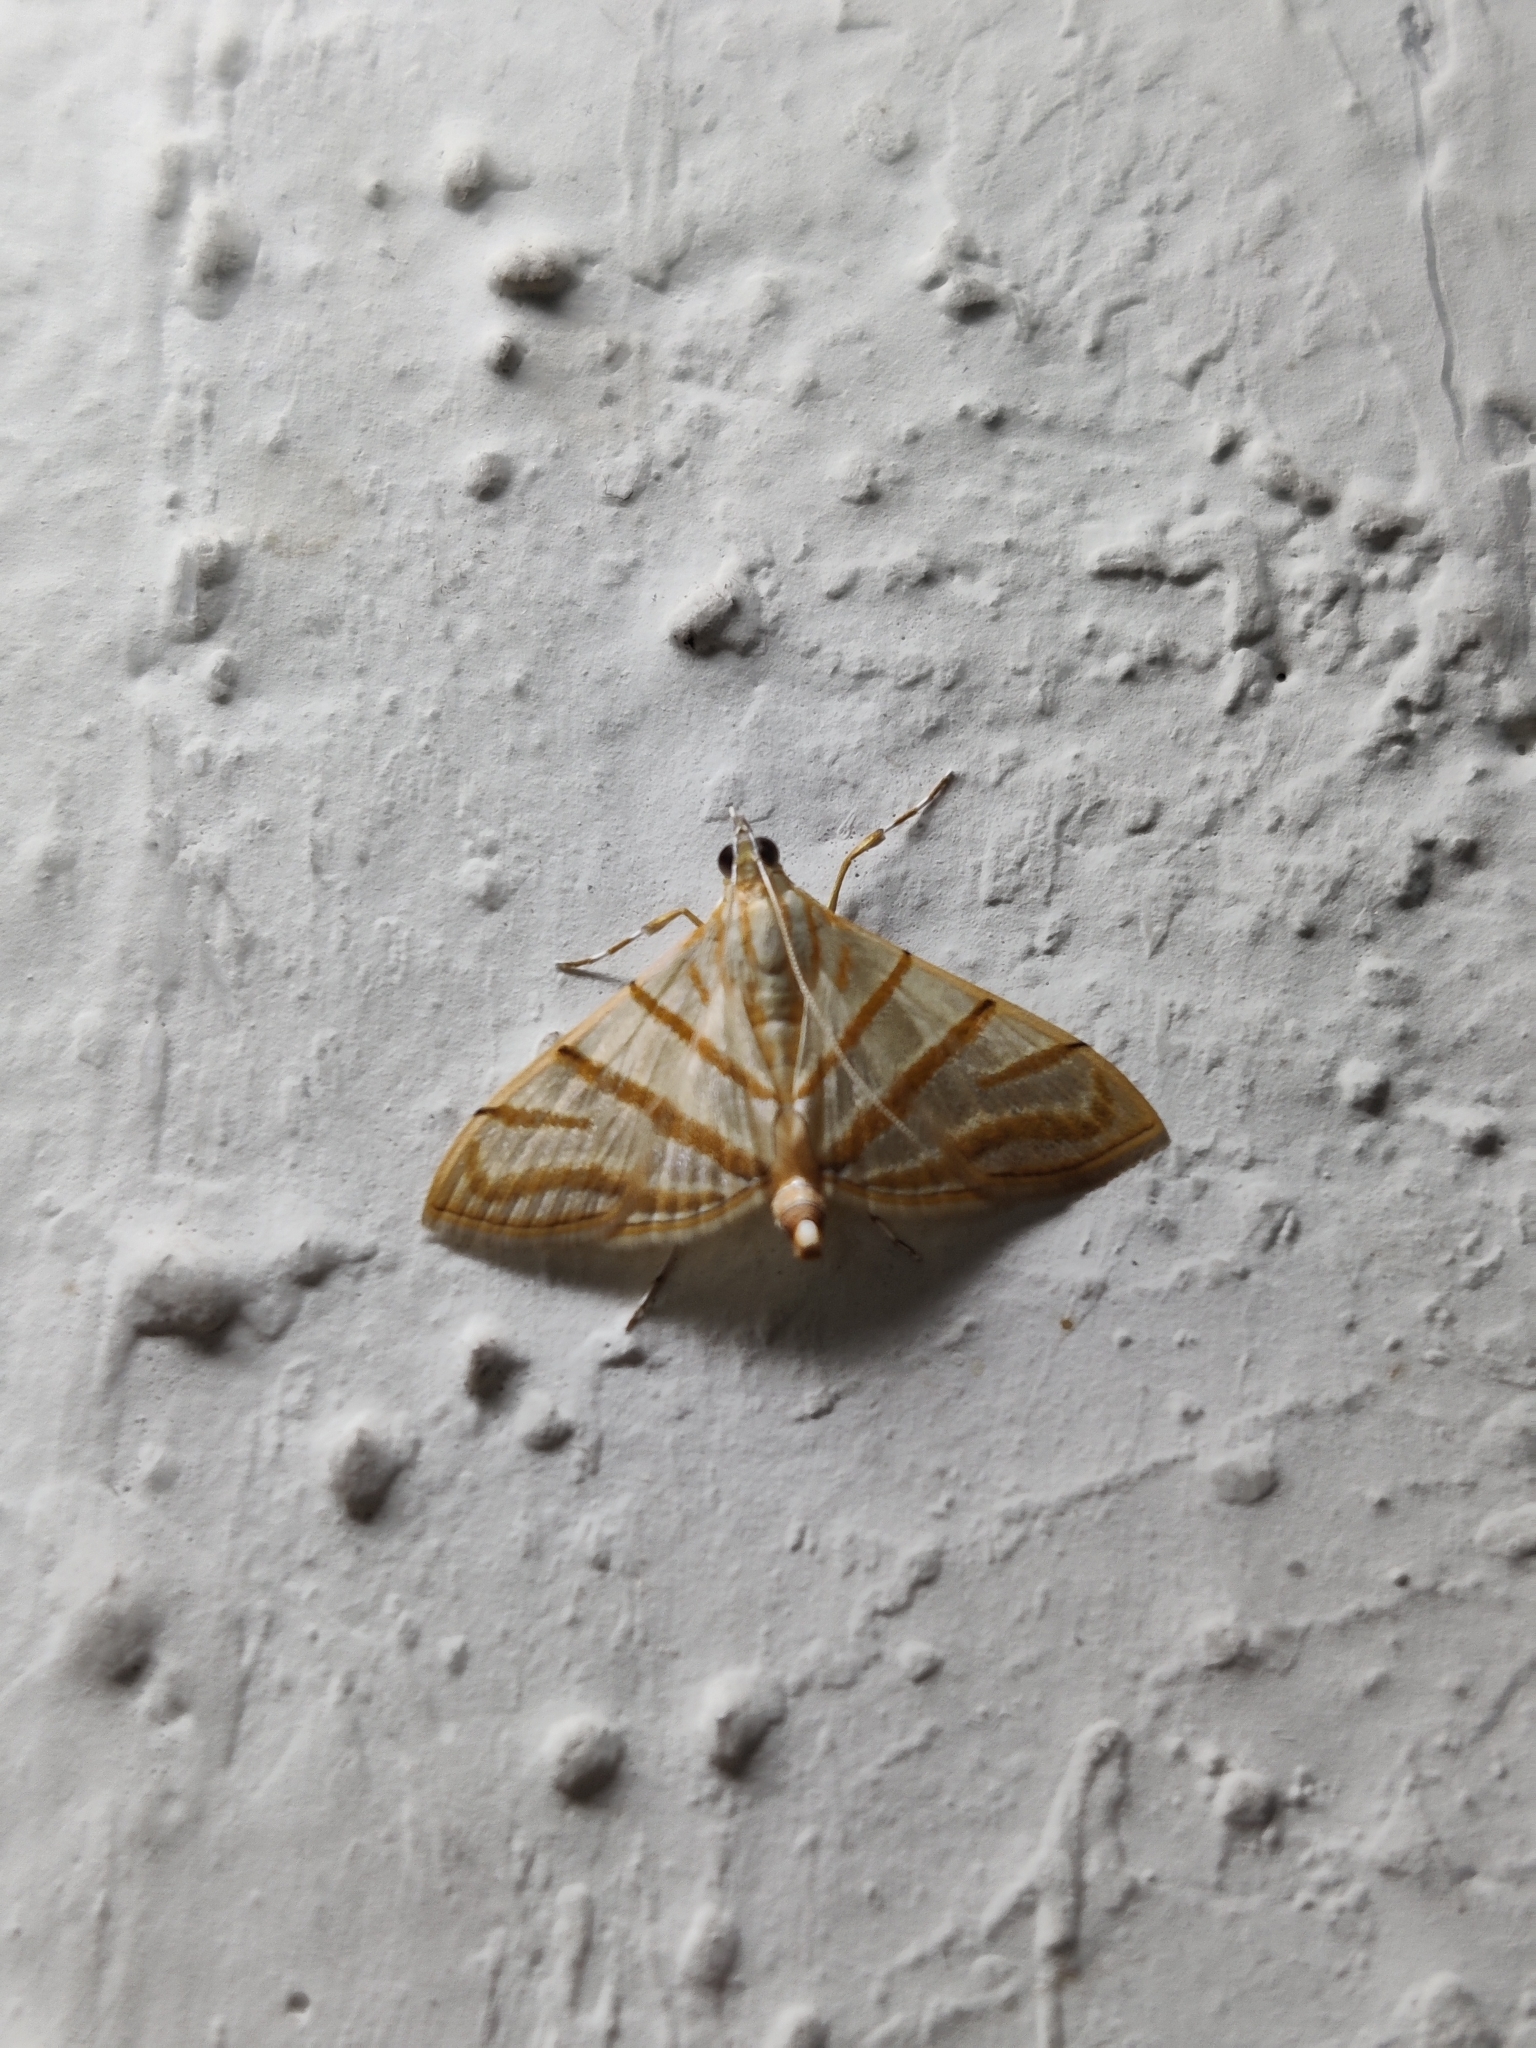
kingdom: Animalia
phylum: Arthropoda
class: Insecta
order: Lepidoptera
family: Crambidae
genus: Pagyda
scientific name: Pagyda salvalis
